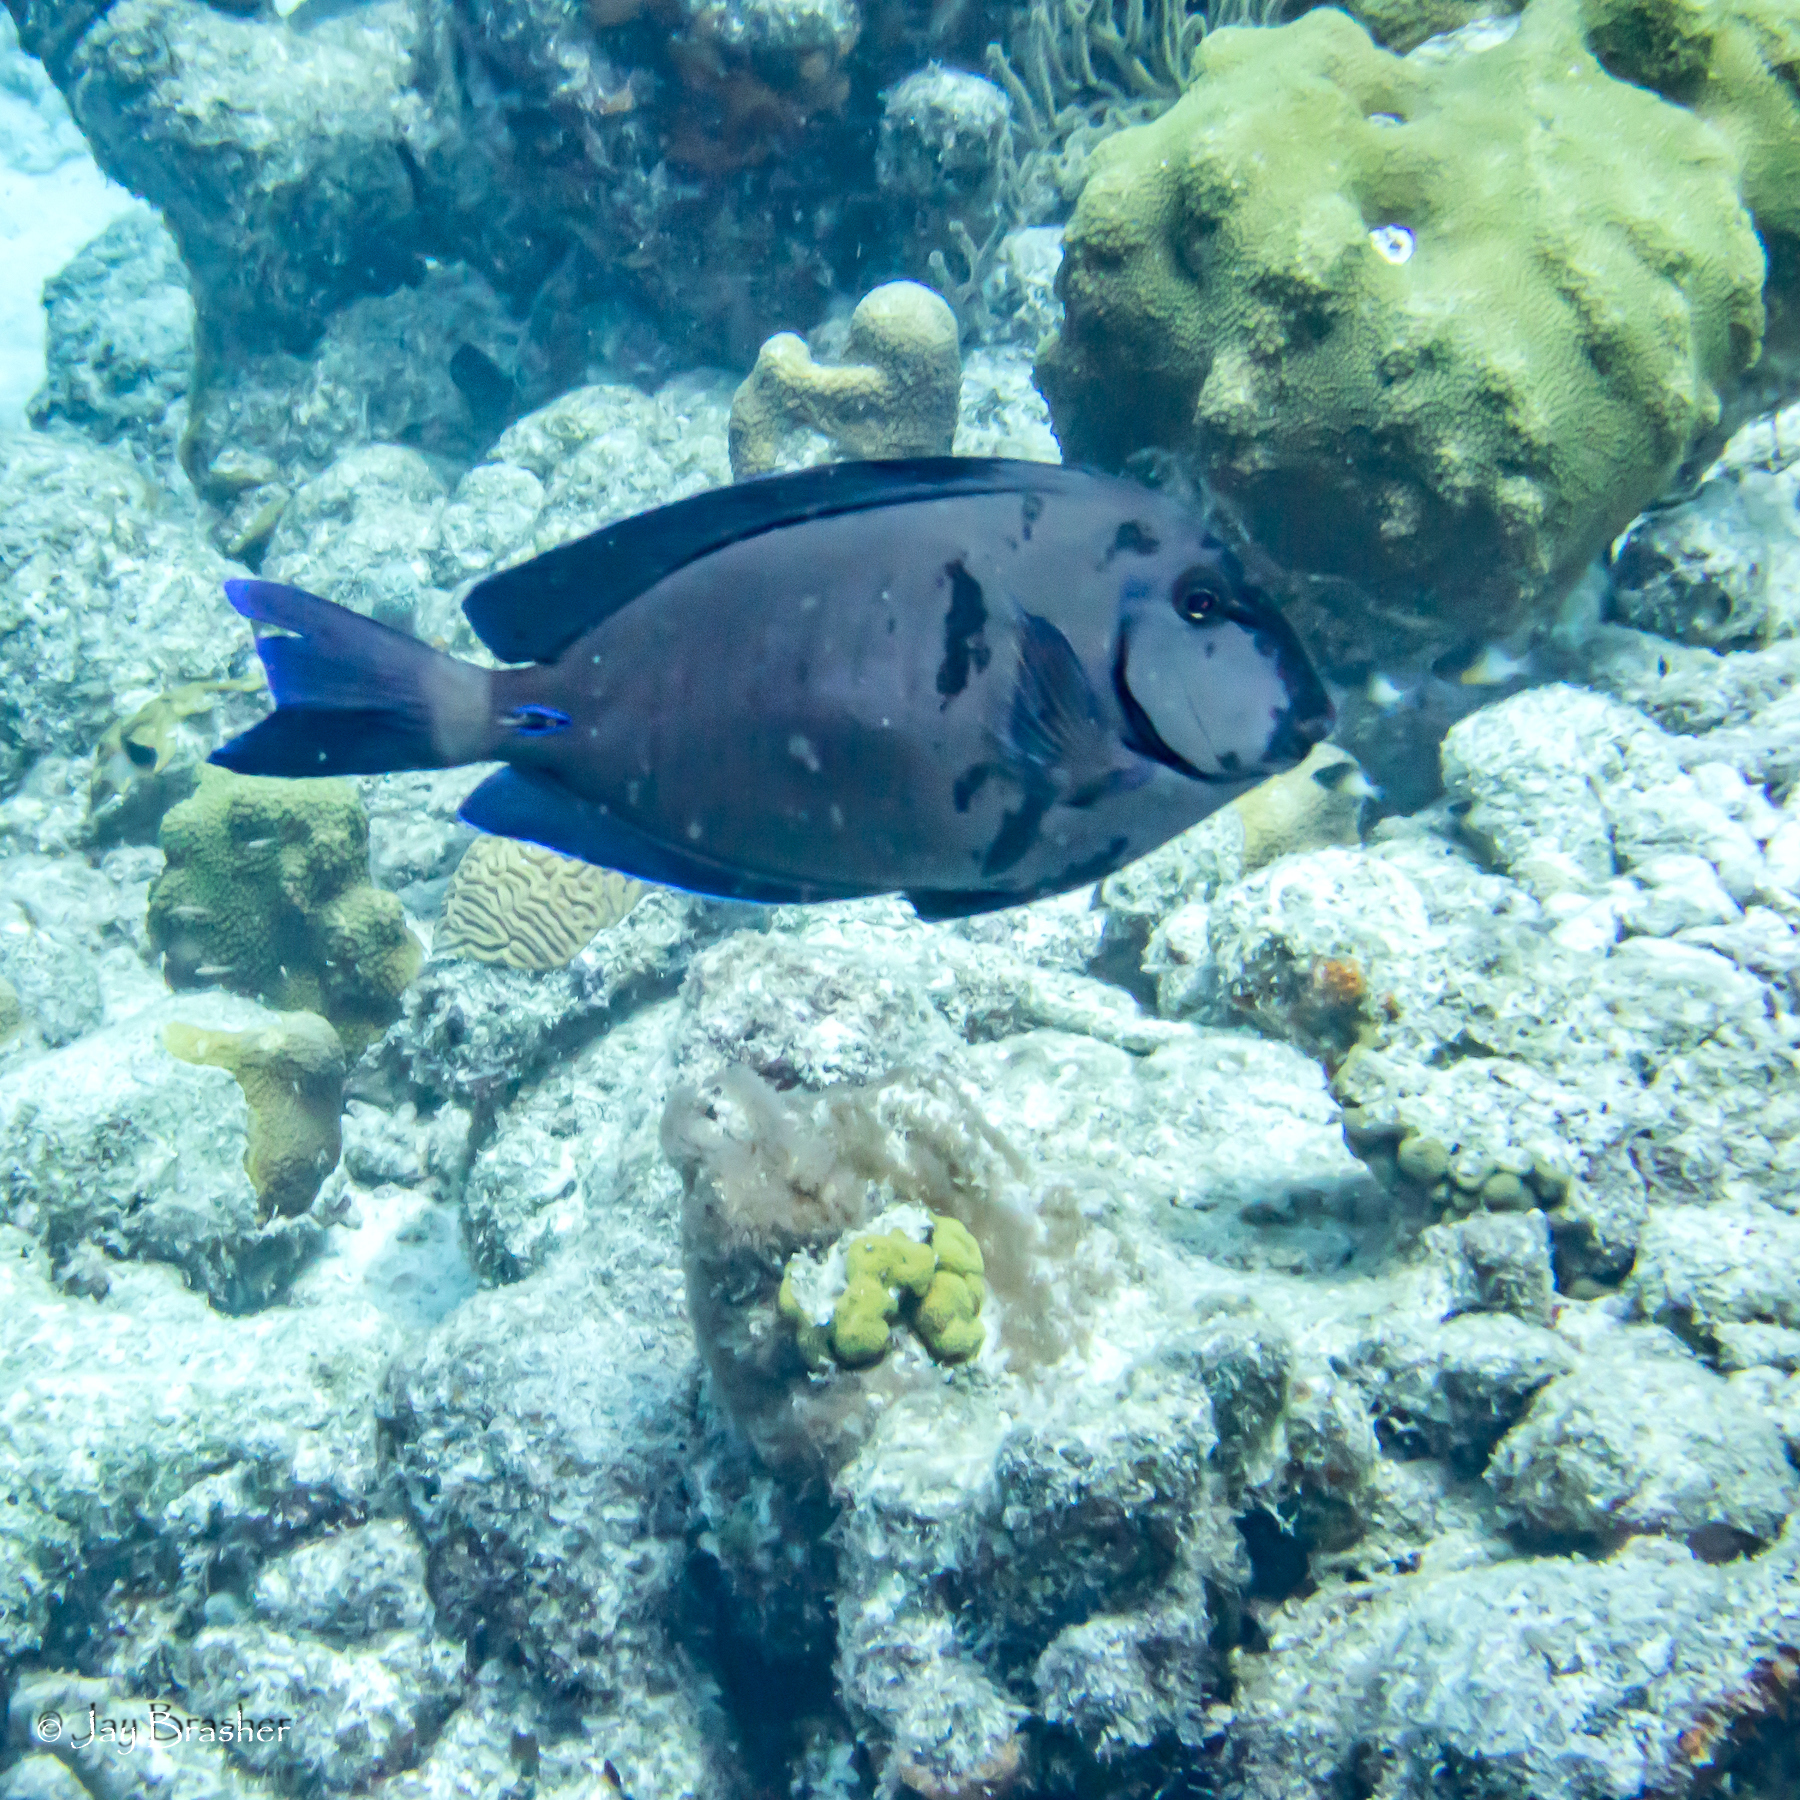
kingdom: Animalia
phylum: Chordata
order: Perciformes
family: Acanthuridae
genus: Acanthurus
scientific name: Acanthurus chirurgus
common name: Doctorfish
